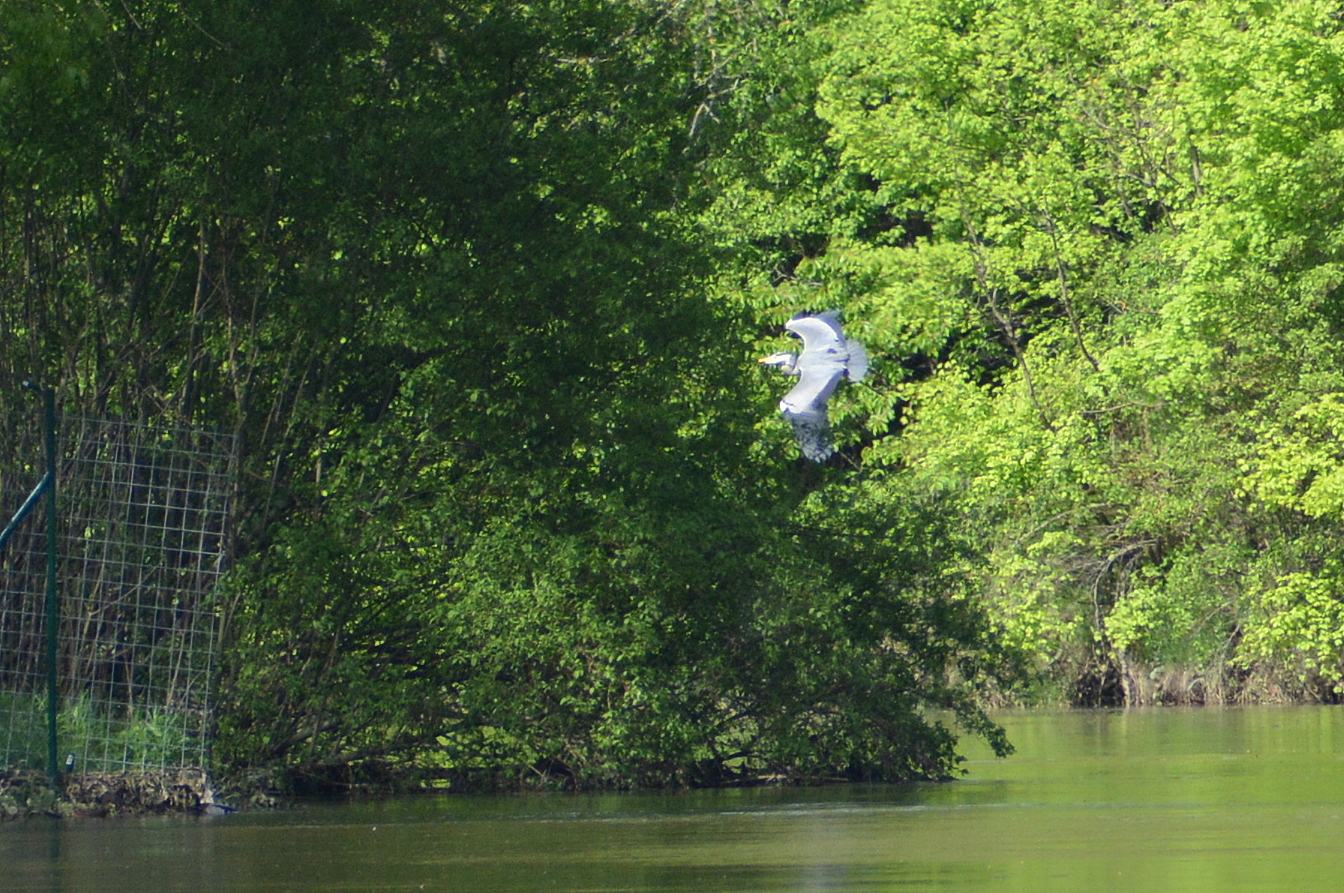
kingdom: Animalia
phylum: Chordata
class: Aves
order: Pelecaniformes
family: Ardeidae
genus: Ardea
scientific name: Ardea cinerea
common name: Grey heron
